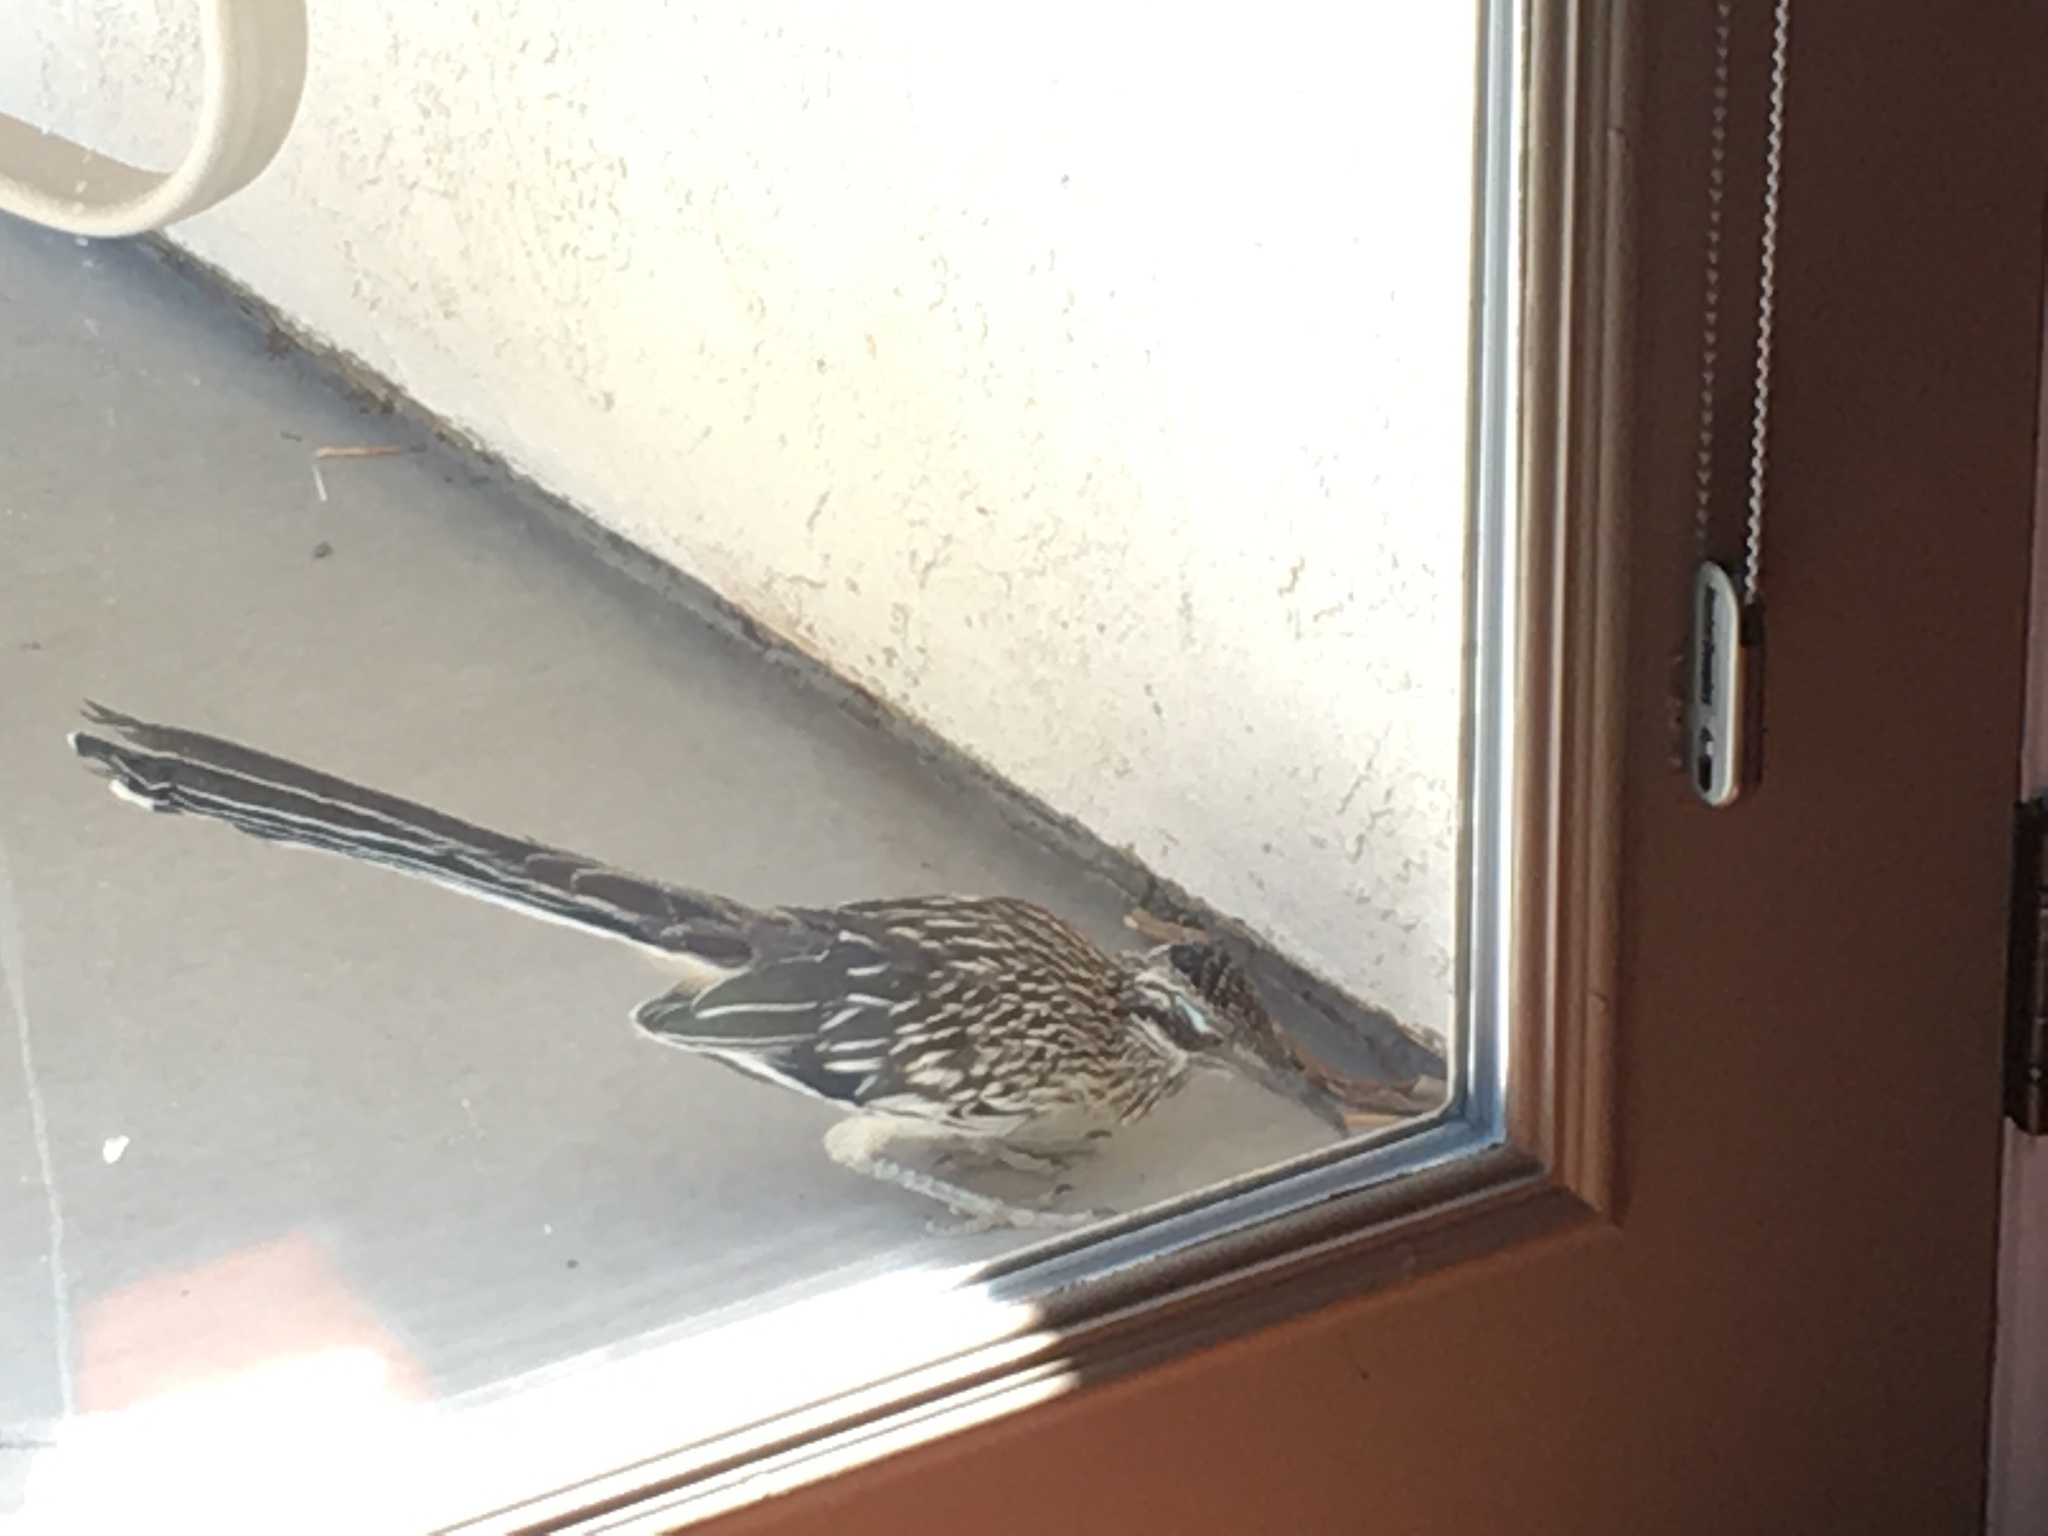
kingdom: Animalia
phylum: Chordata
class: Aves
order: Cuculiformes
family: Cuculidae
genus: Geococcyx
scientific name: Geococcyx californianus
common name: Greater roadrunner
